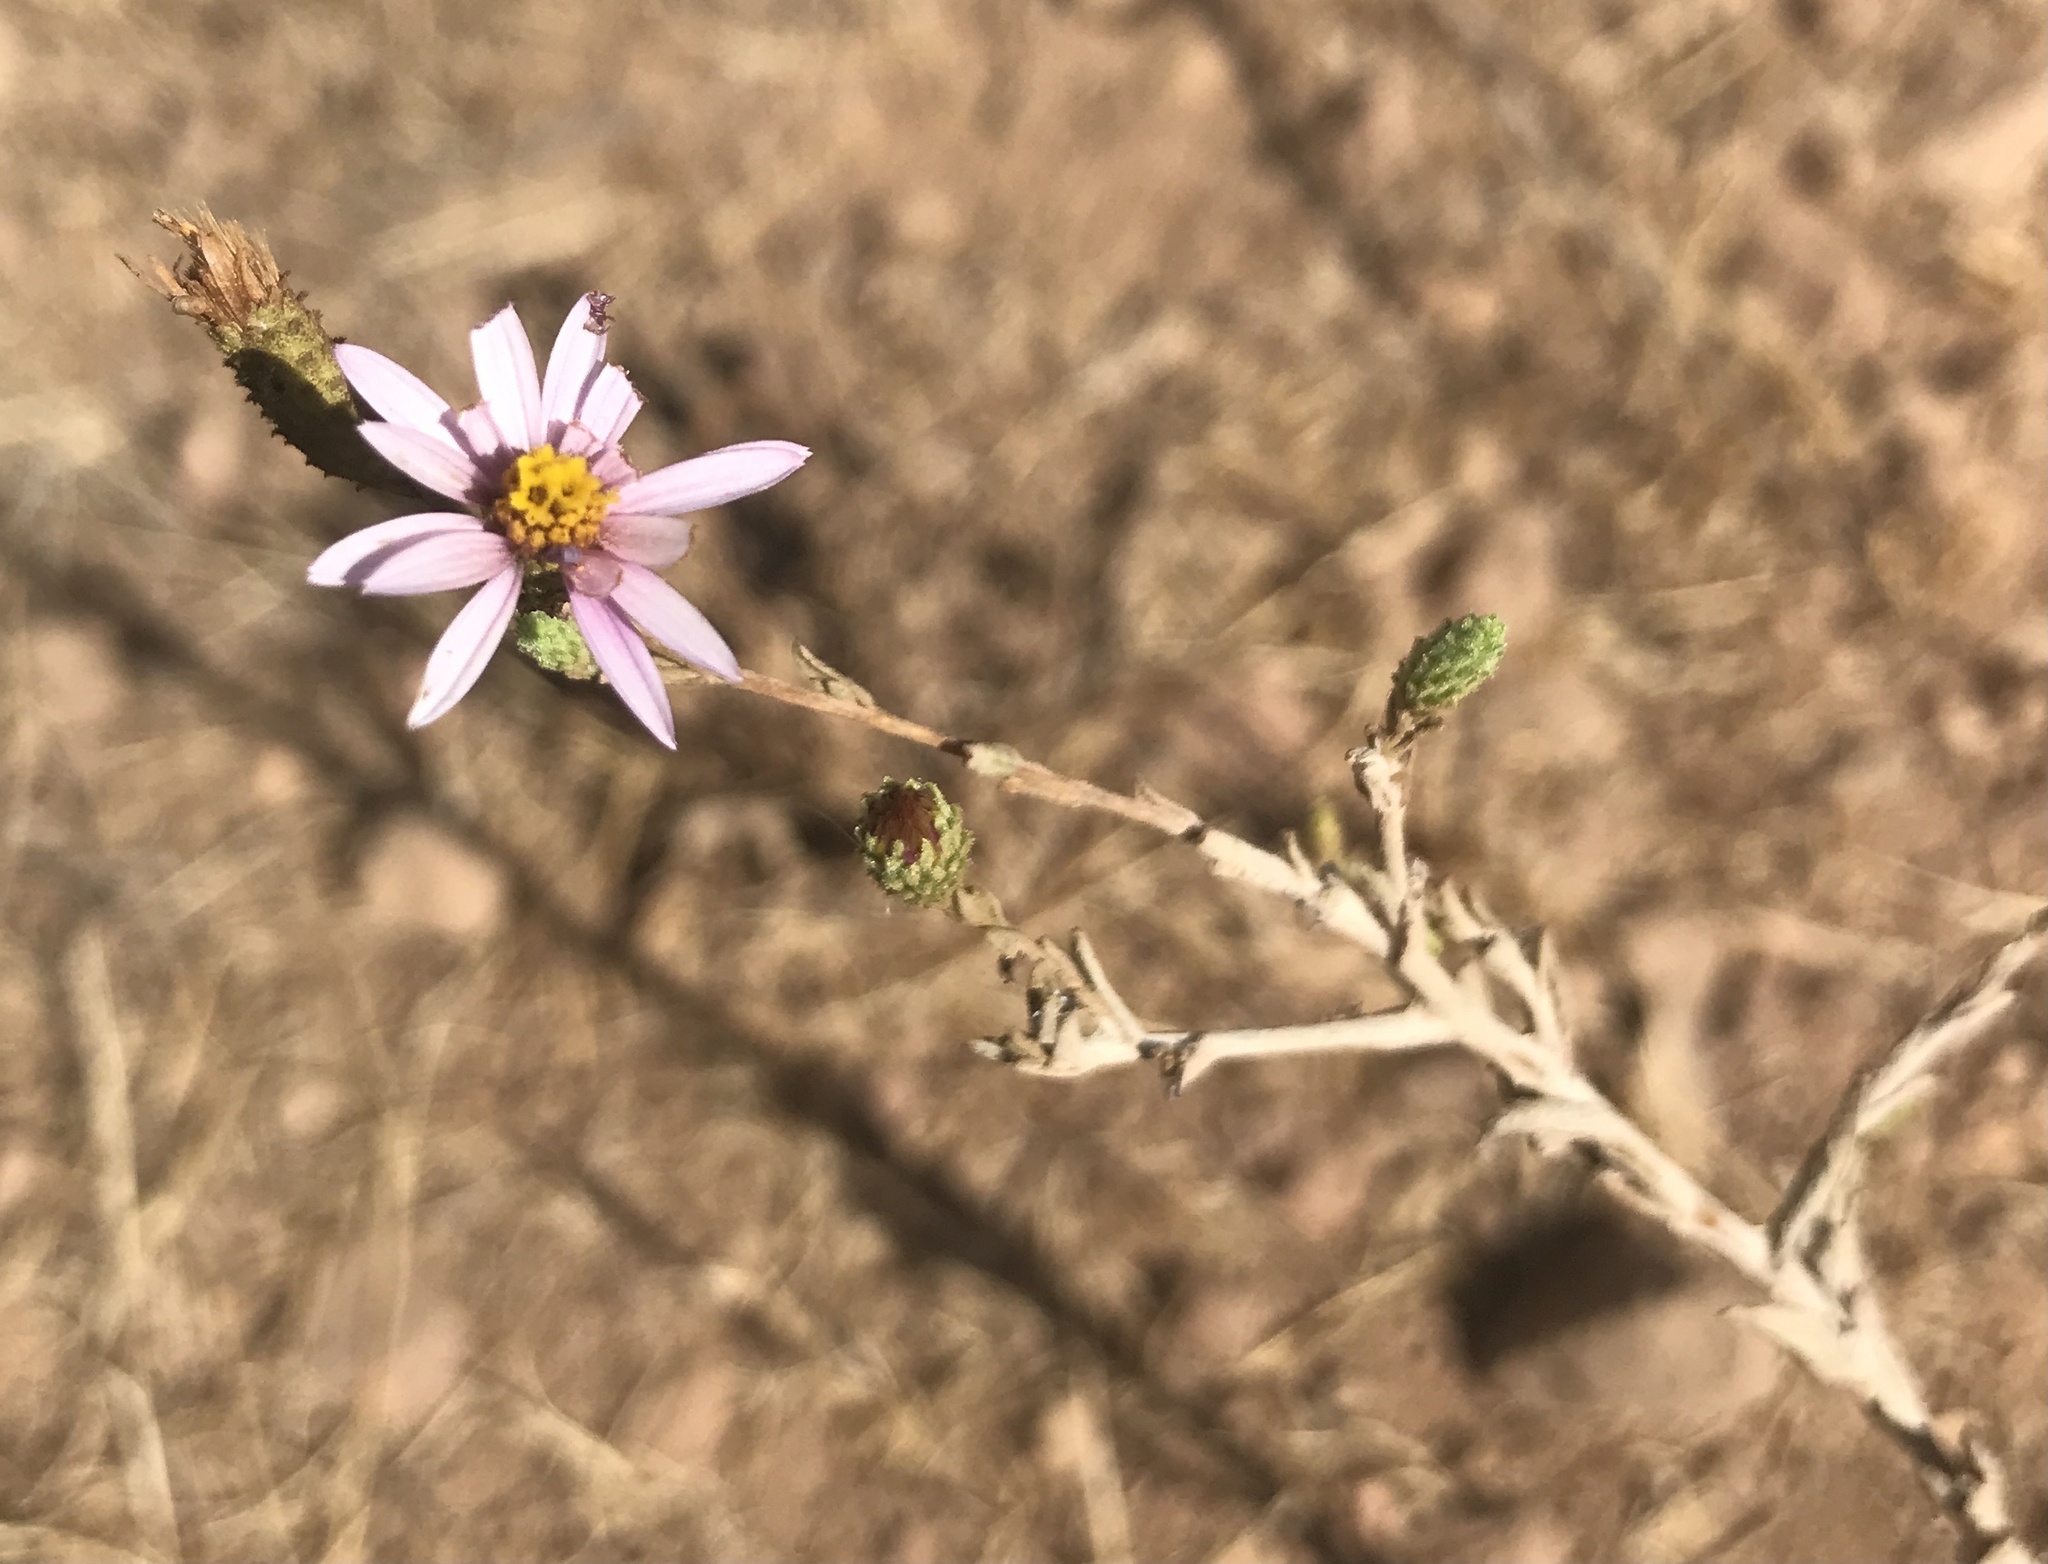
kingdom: Plantae
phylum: Tracheophyta
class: Magnoliopsida
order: Asterales
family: Asteraceae
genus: Corethrogyne
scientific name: Corethrogyne filaginifolia
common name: Sand-aster
